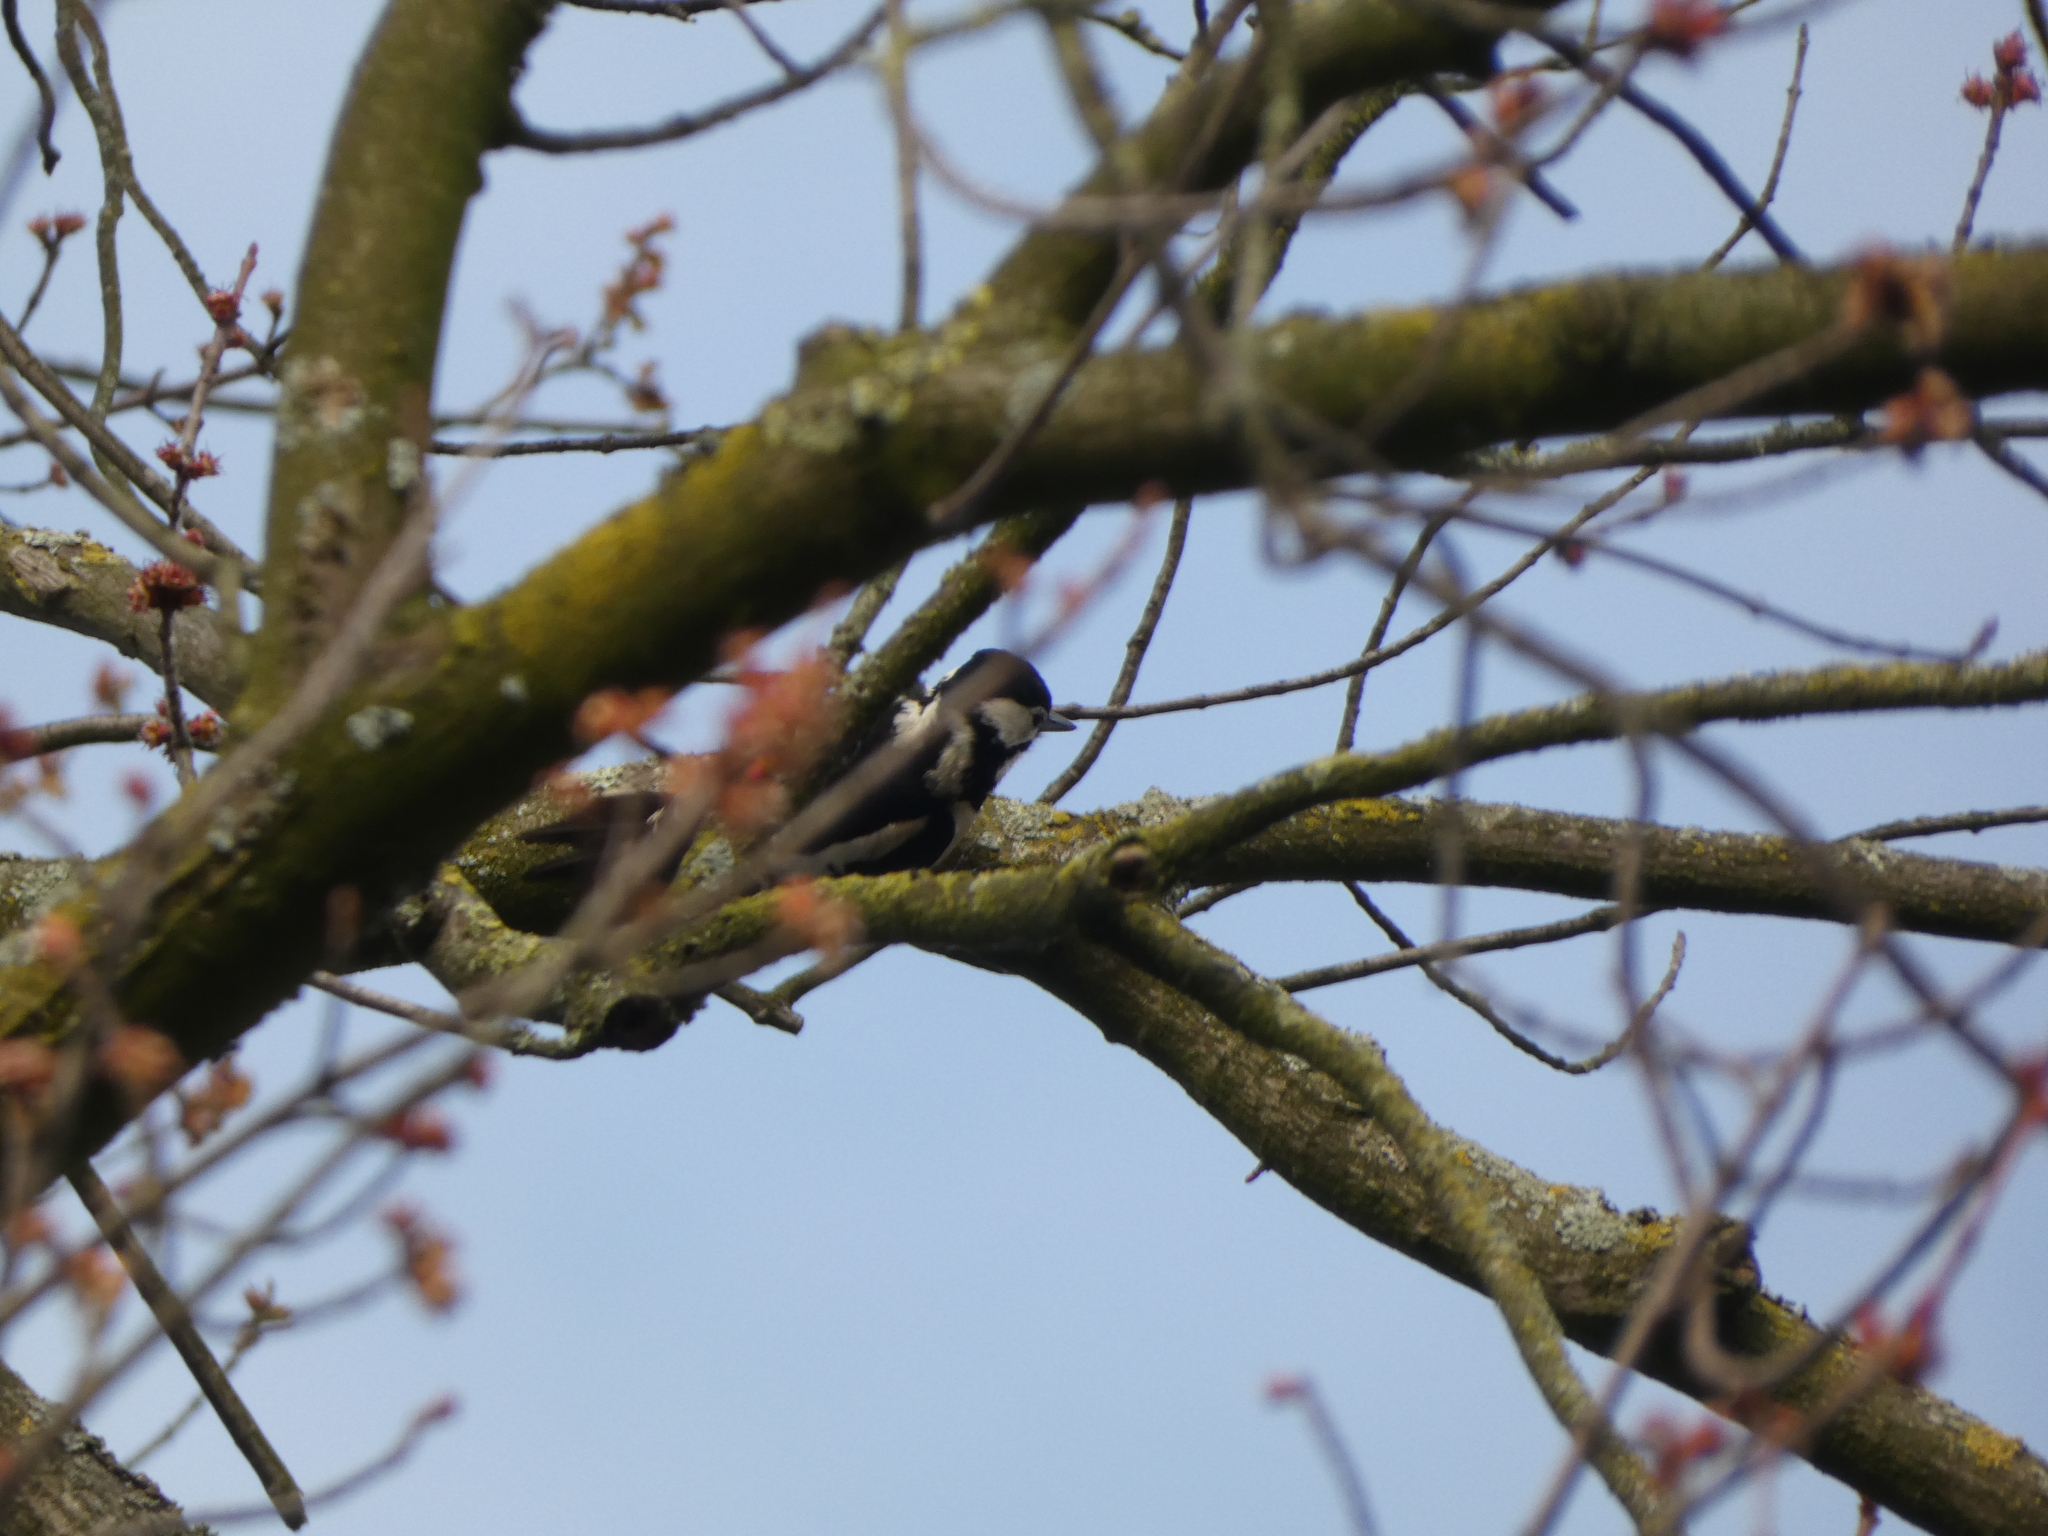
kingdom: Animalia
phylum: Chordata
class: Aves
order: Piciformes
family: Picidae
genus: Dendrocopos
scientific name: Dendrocopos major
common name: Great spotted woodpecker
